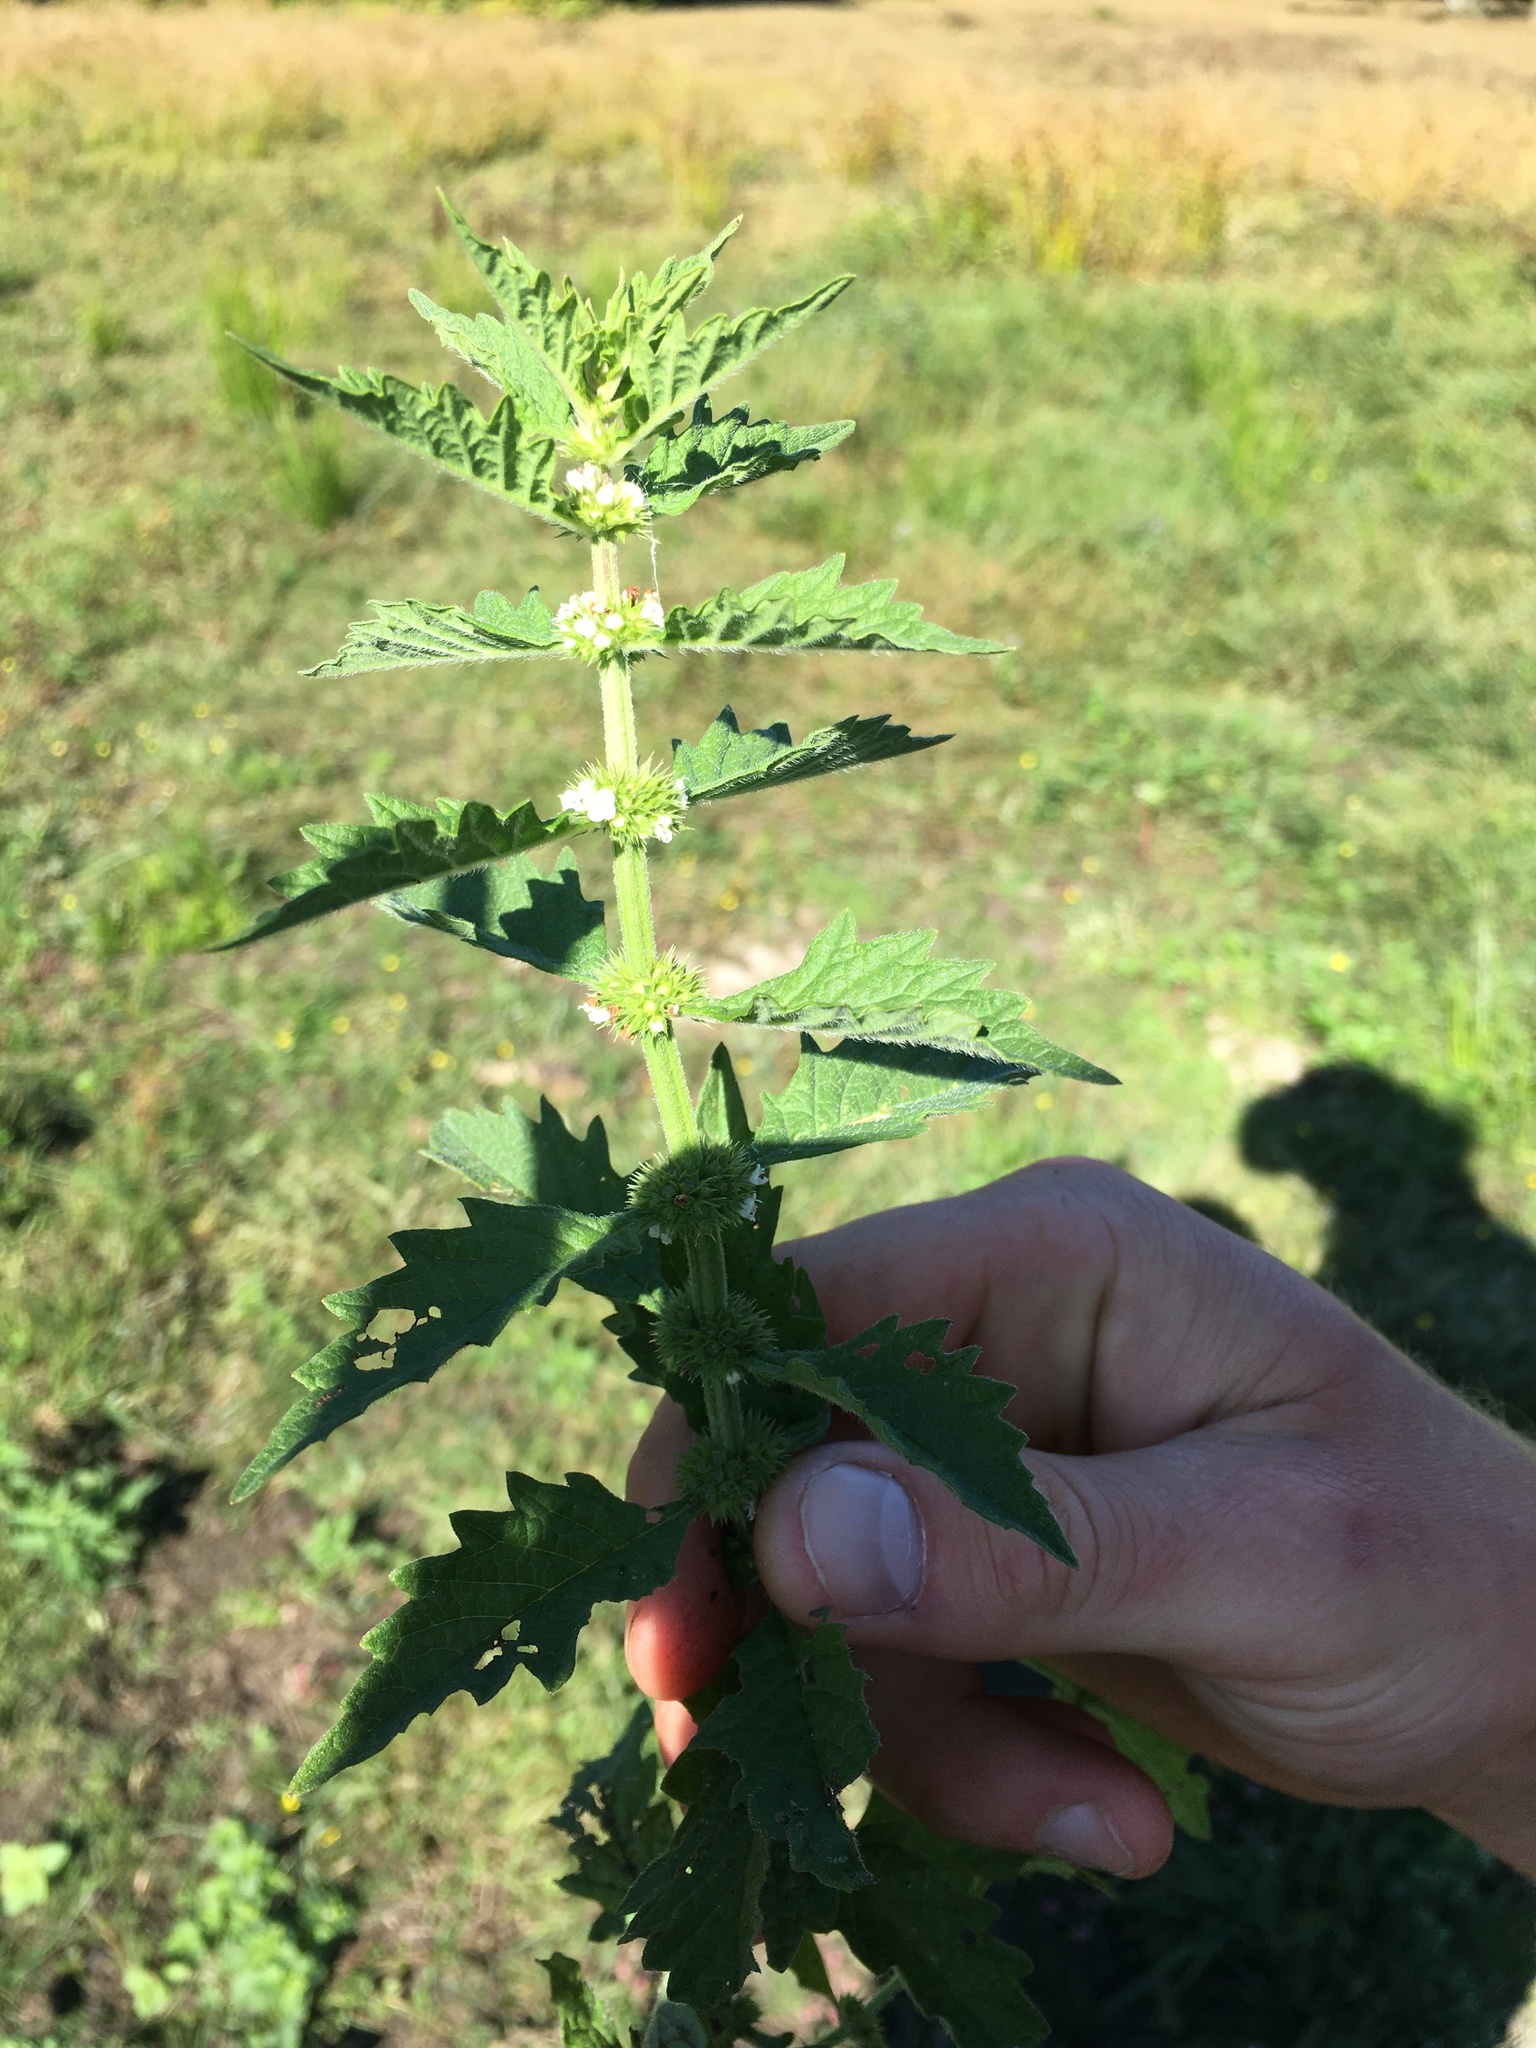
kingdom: Plantae
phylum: Tracheophyta
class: Magnoliopsida
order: Lamiales
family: Lamiaceae
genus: Lycopus
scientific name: Lycopus europaeus
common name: European bugleweed
